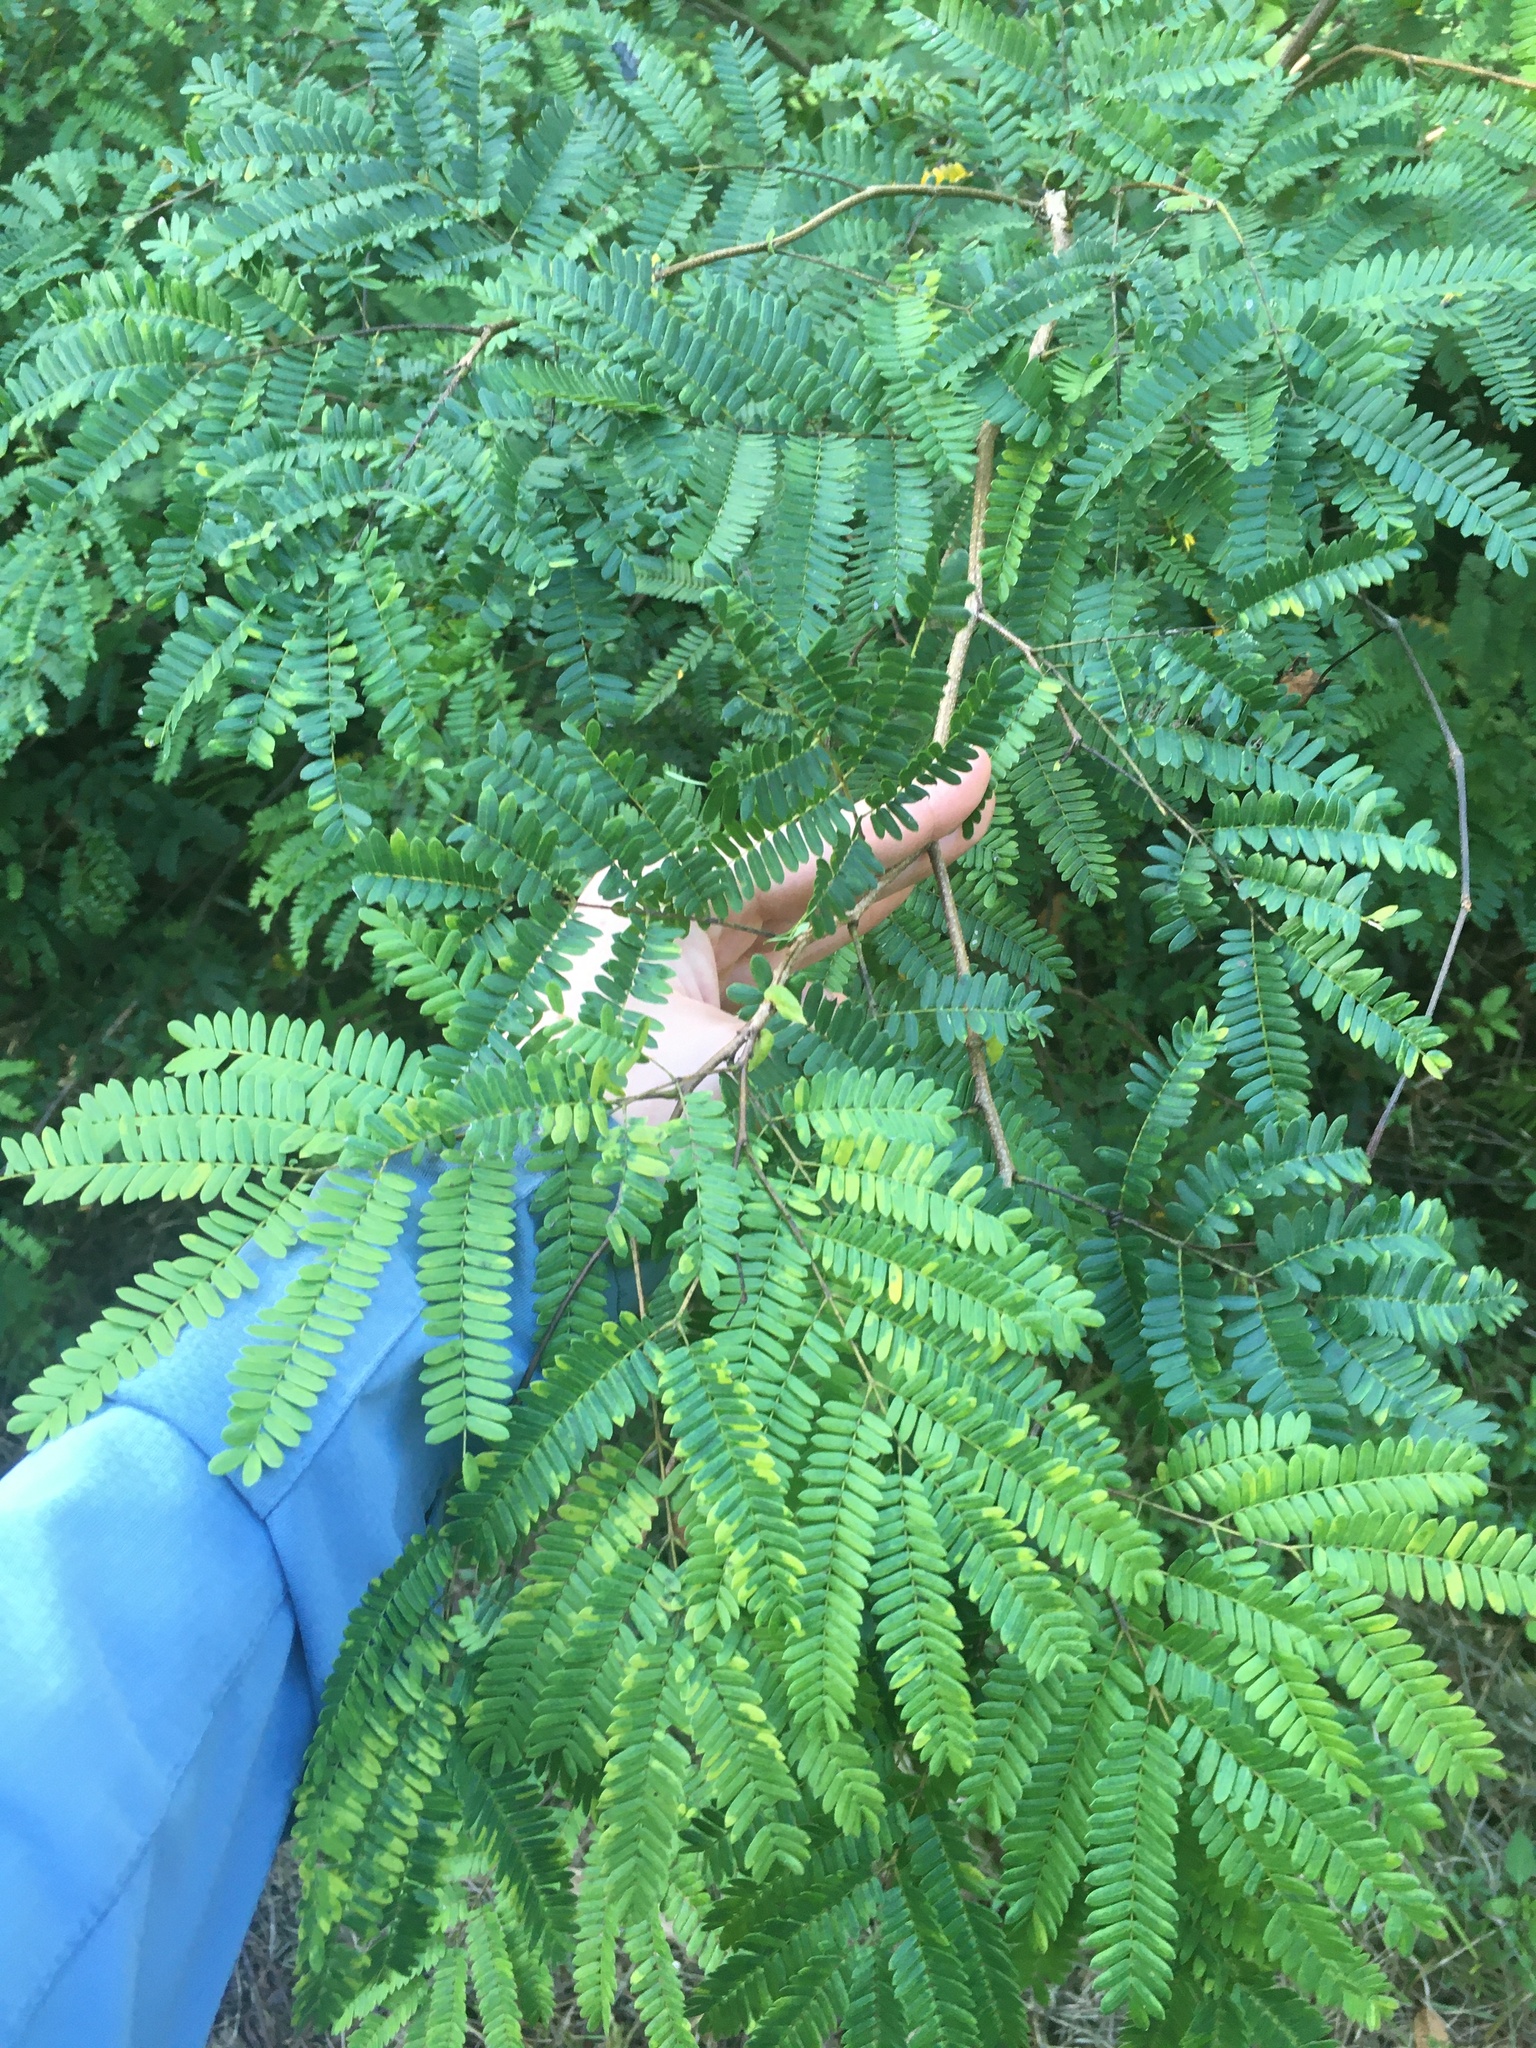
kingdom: Plantae
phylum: Tracheophyta
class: Magnoliopsida
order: Fabales
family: Fabaceae
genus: Lysiloma
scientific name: Lysiloma latisiliquum
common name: Wild tamarind
